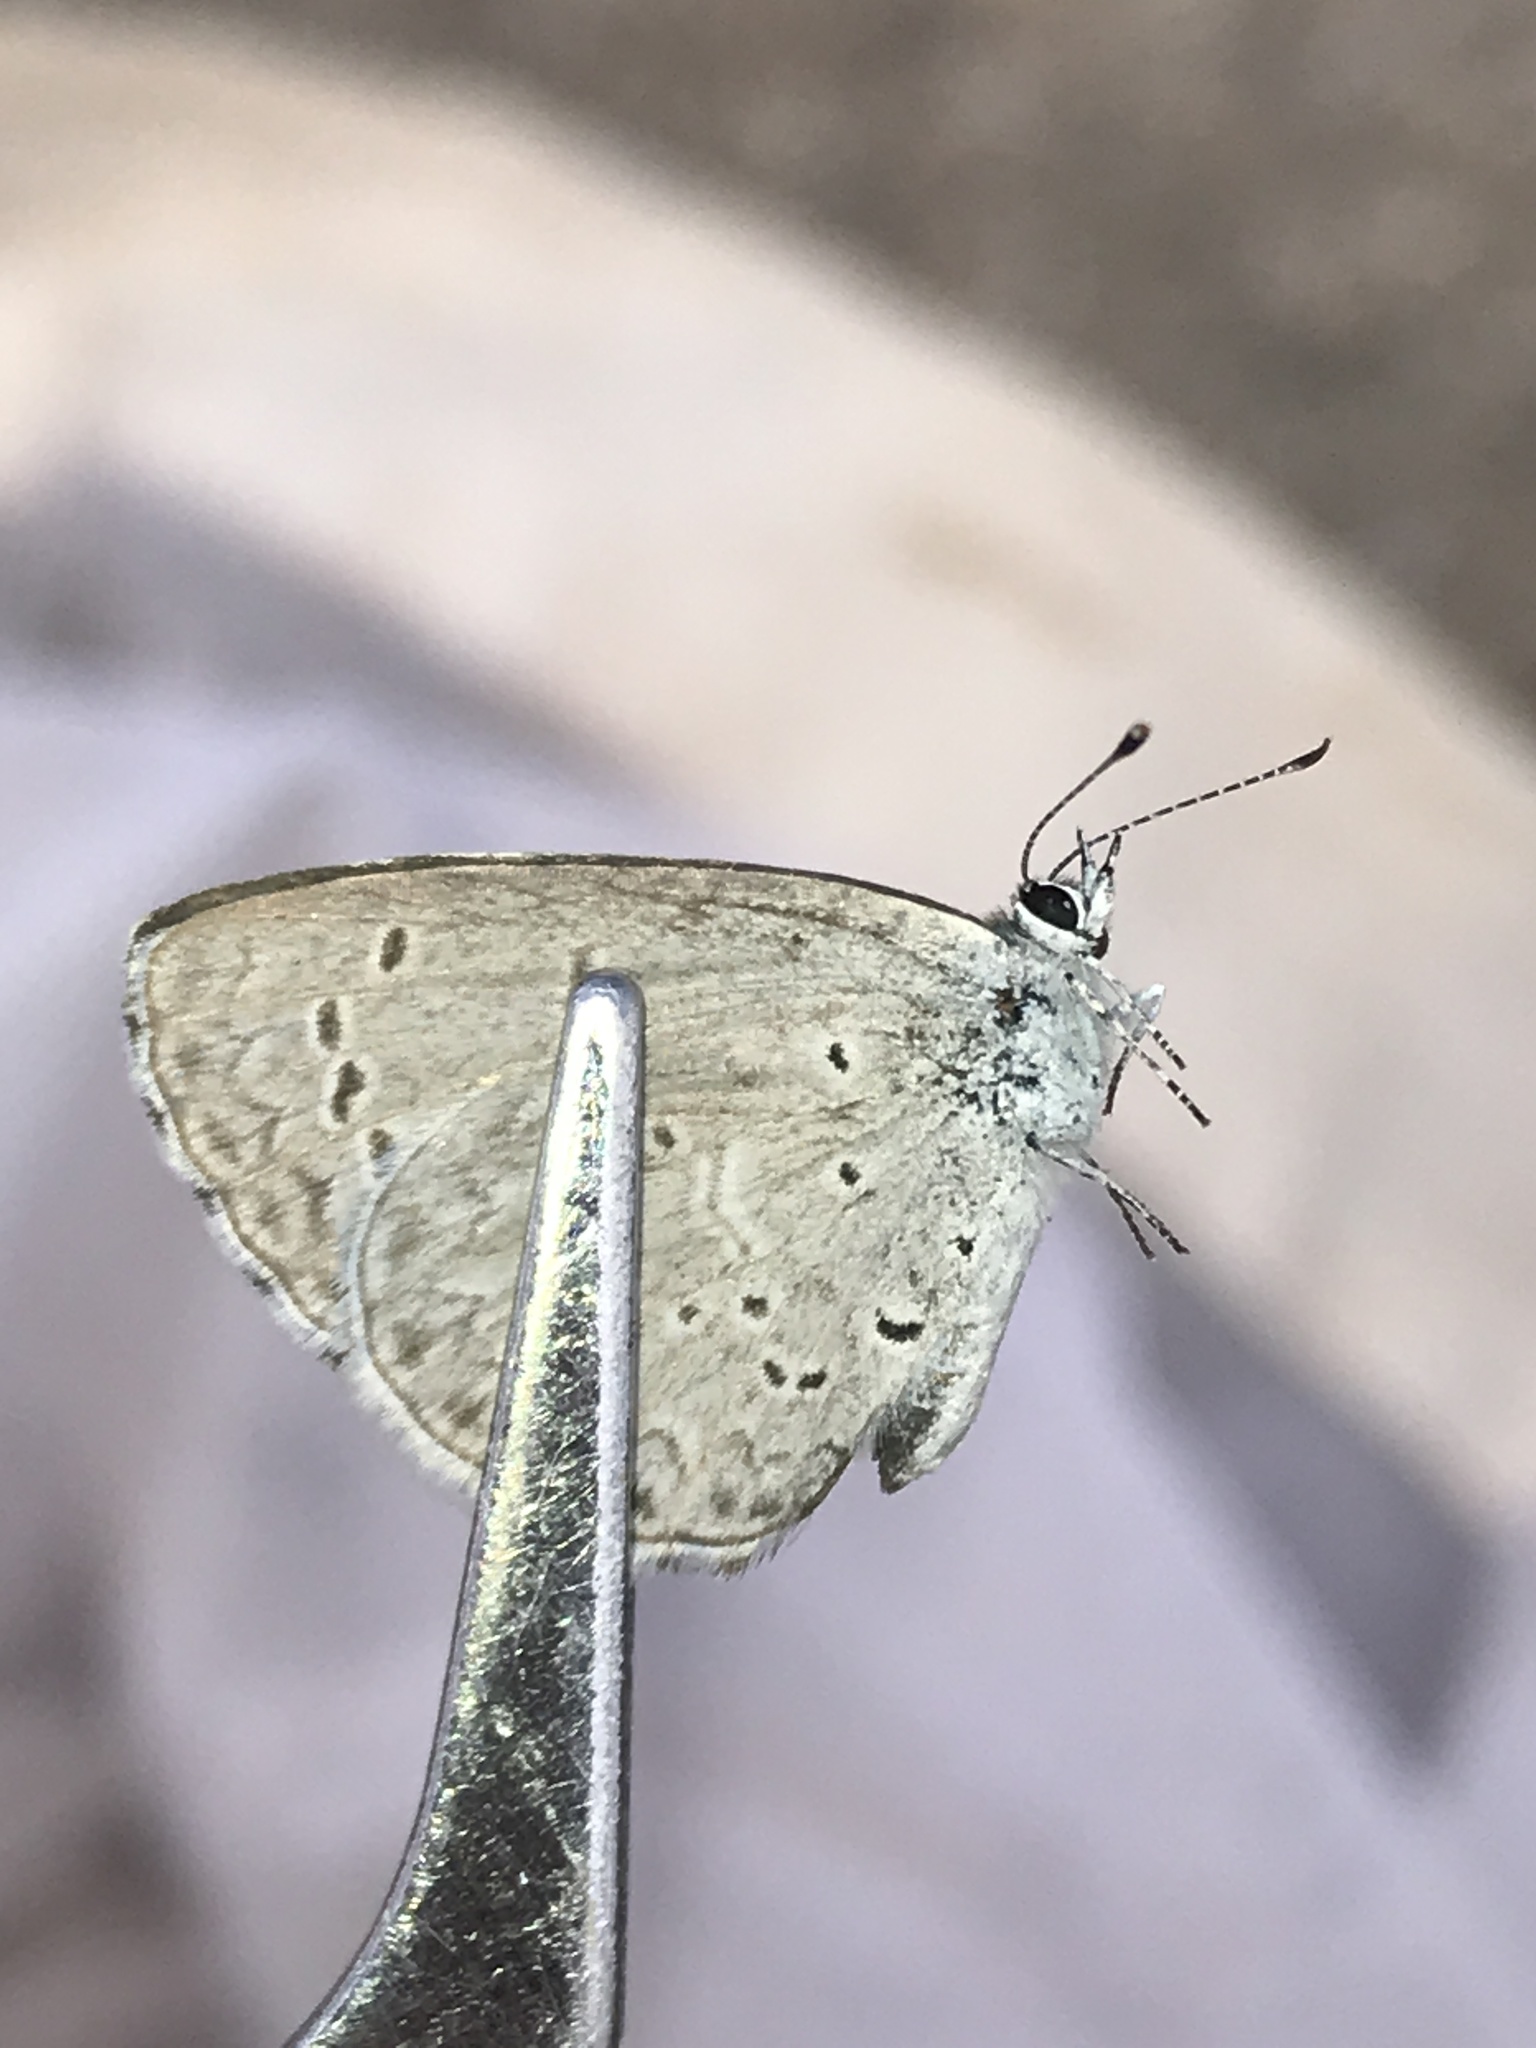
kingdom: Animalia
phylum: Arthropoda
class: Insecta
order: Lepidoptera
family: Lycaenidae
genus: Celastrina
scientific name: Celastrina argiolus
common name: Holly blue
